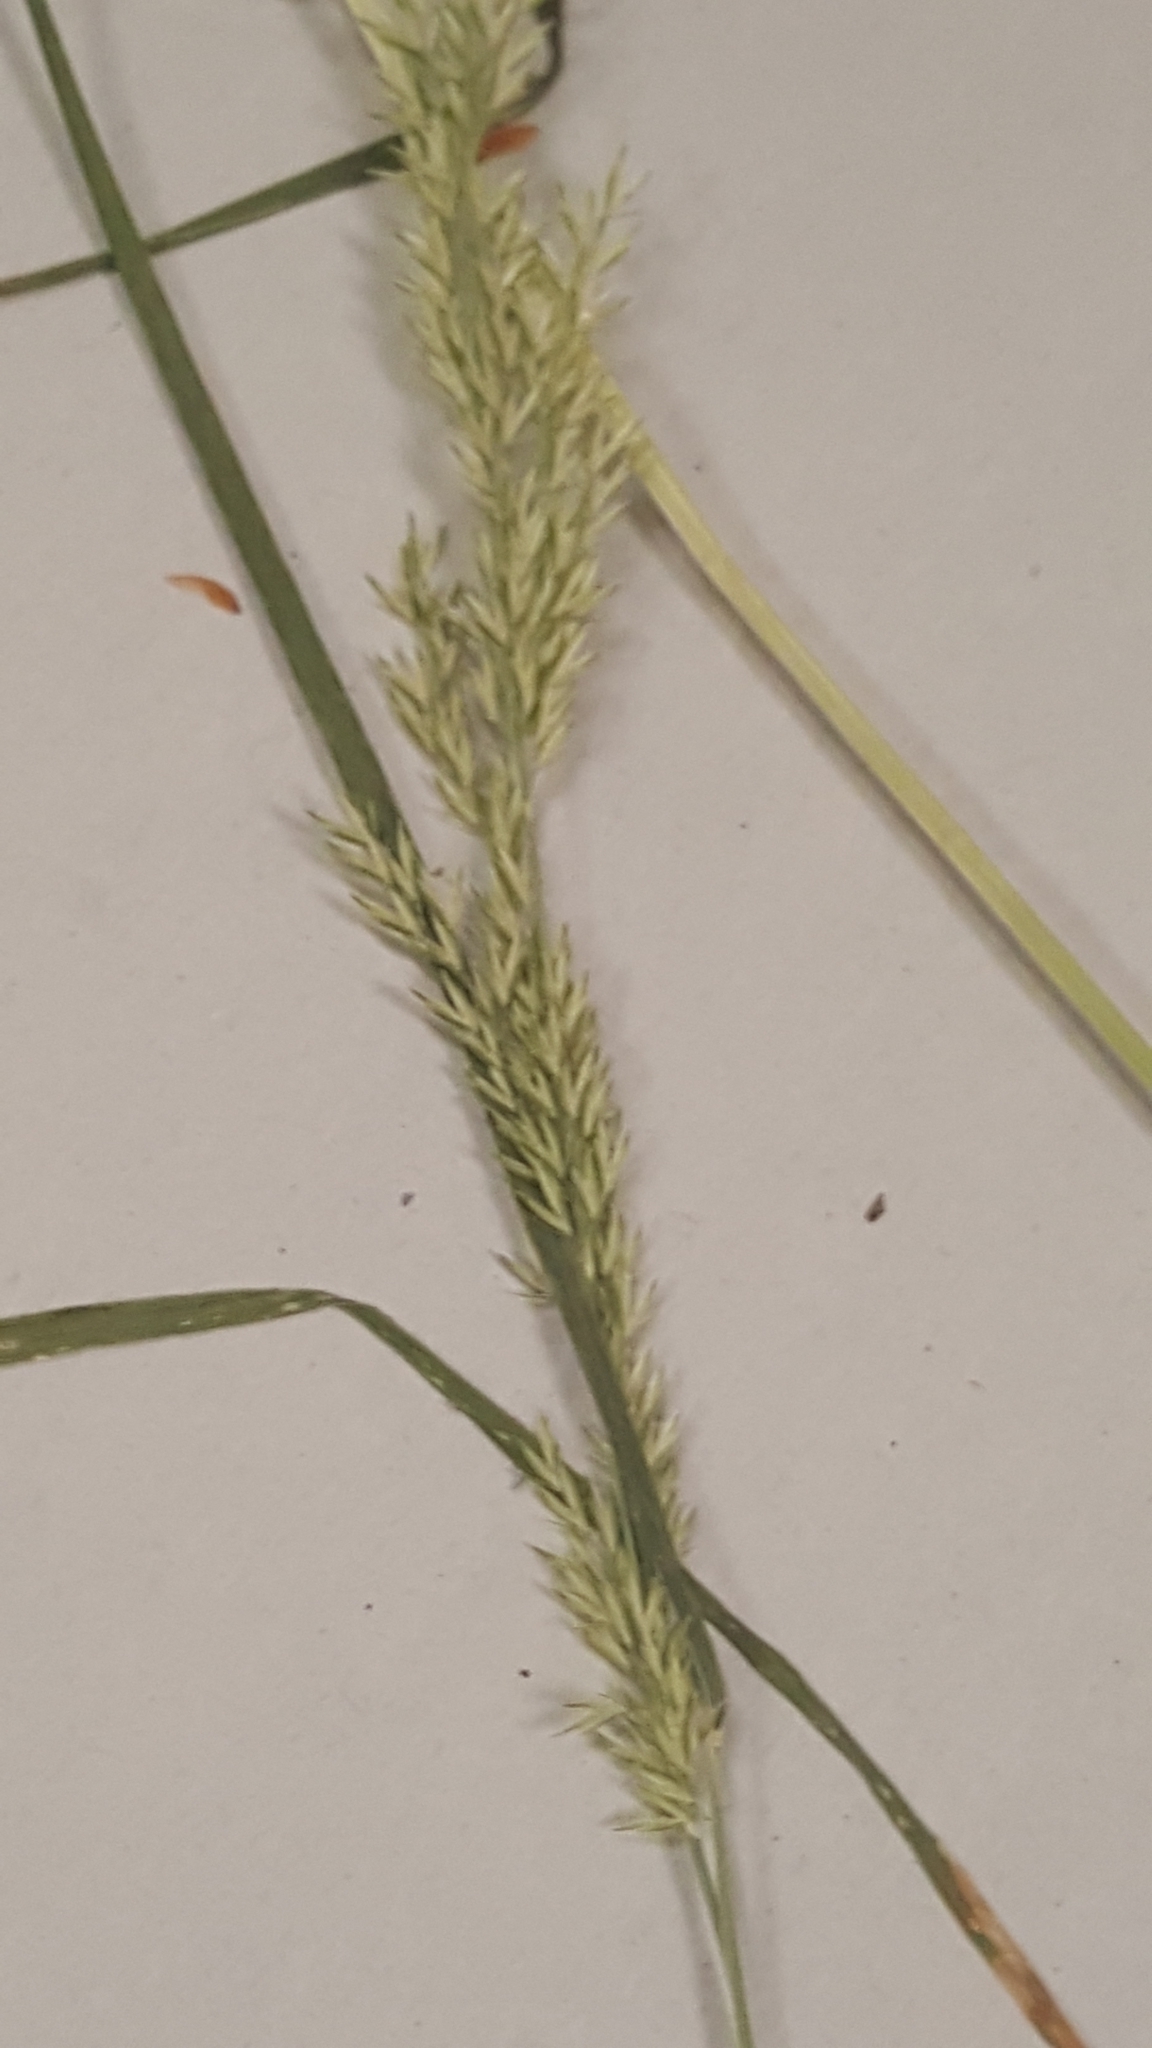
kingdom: Plantae
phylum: Tracheophyta
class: Liliopsida
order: Poales
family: Poaceae
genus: Sphenopholis
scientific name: Sphenopholis intermedia
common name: Intermediate eaton's grass
